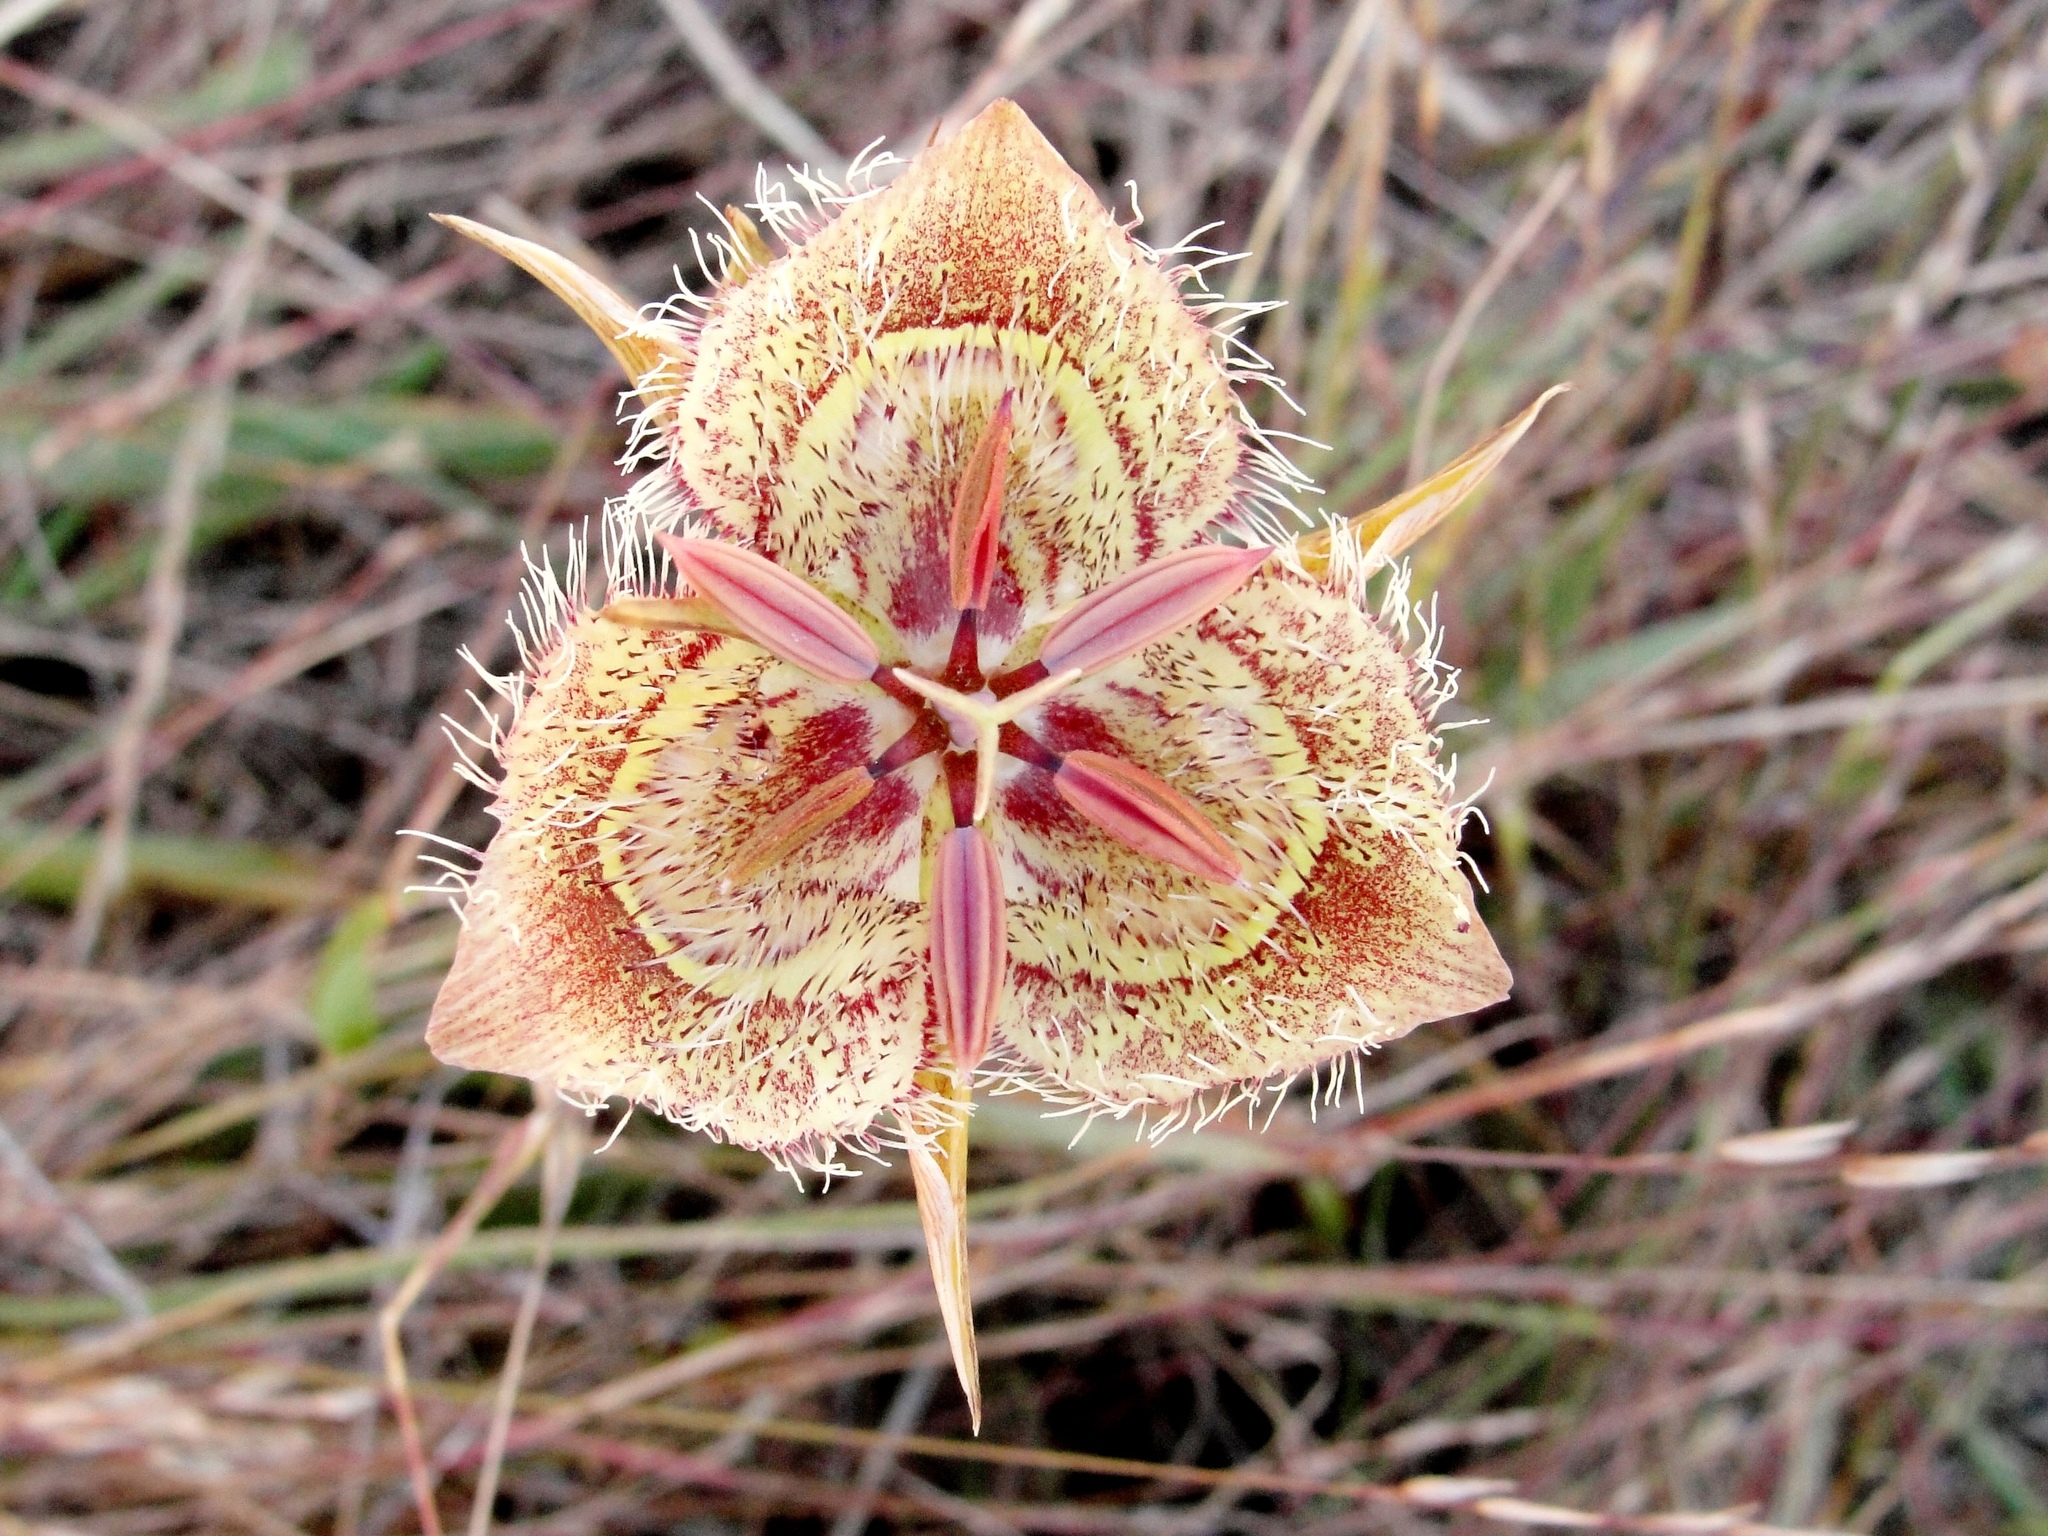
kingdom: Plantae
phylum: Tracheophyta
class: Liliopsida
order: Liliales
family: Liliaceae
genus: Calochortus
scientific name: Calochortus tiburonensis
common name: Tiburon mariposa-lily
